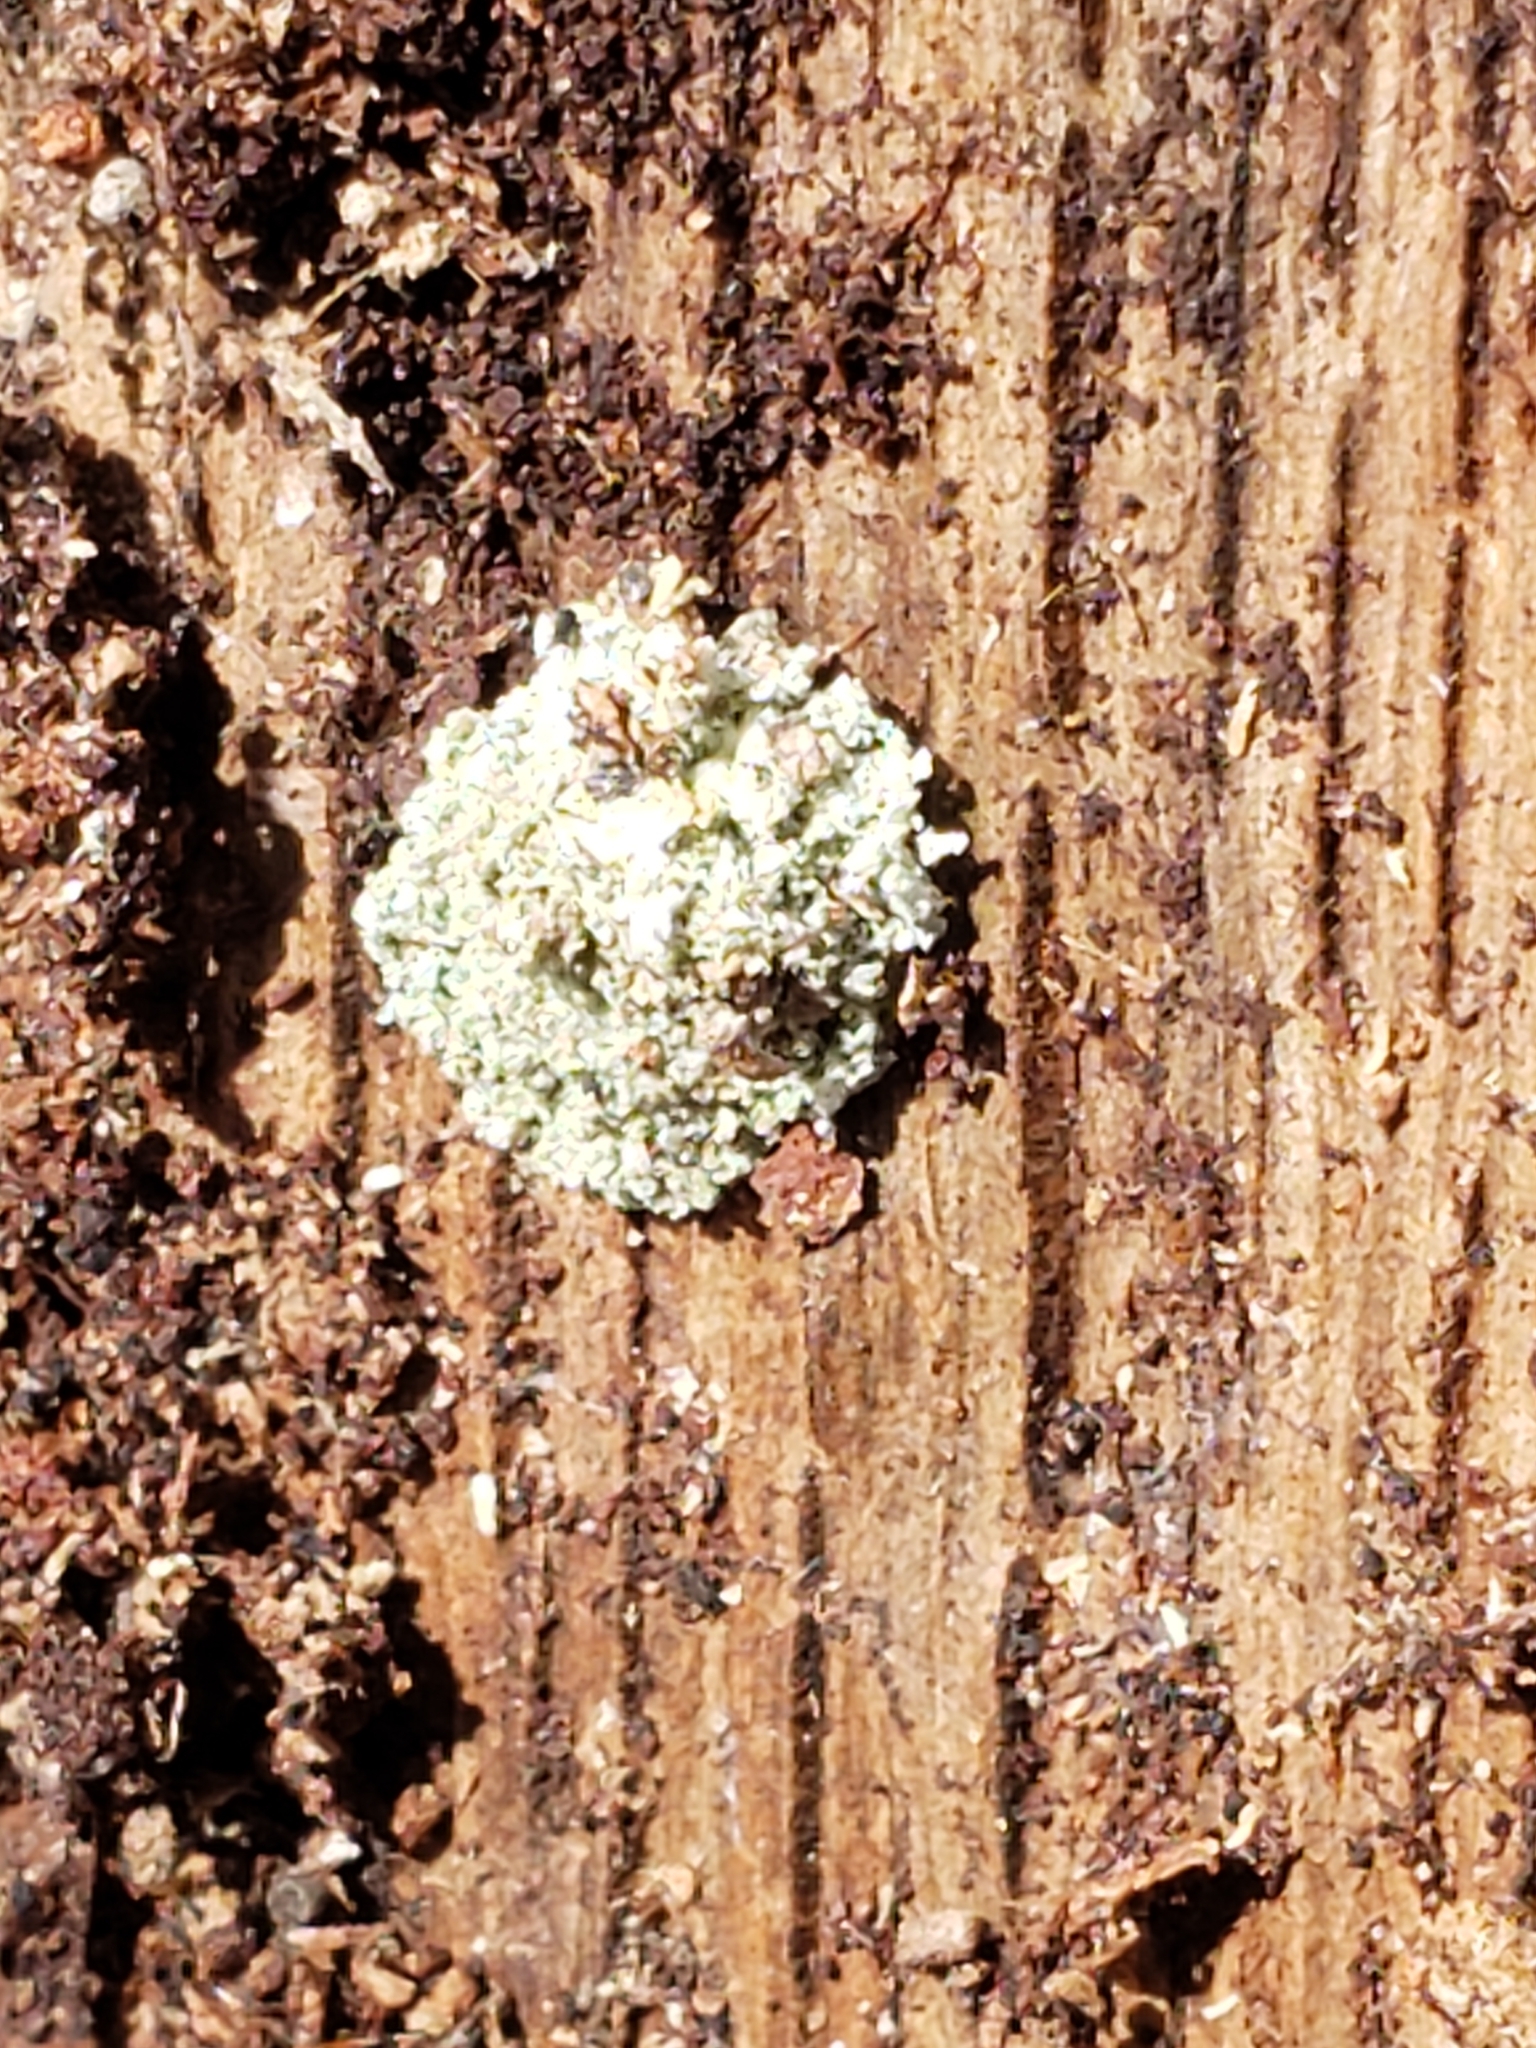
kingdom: Animalia
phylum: Arthropoda
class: Insecta
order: Neuroptera
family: Chrysopidae
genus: Leucochrysa
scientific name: Leucochrysa pavida
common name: Lichen-carrying green lacewing
